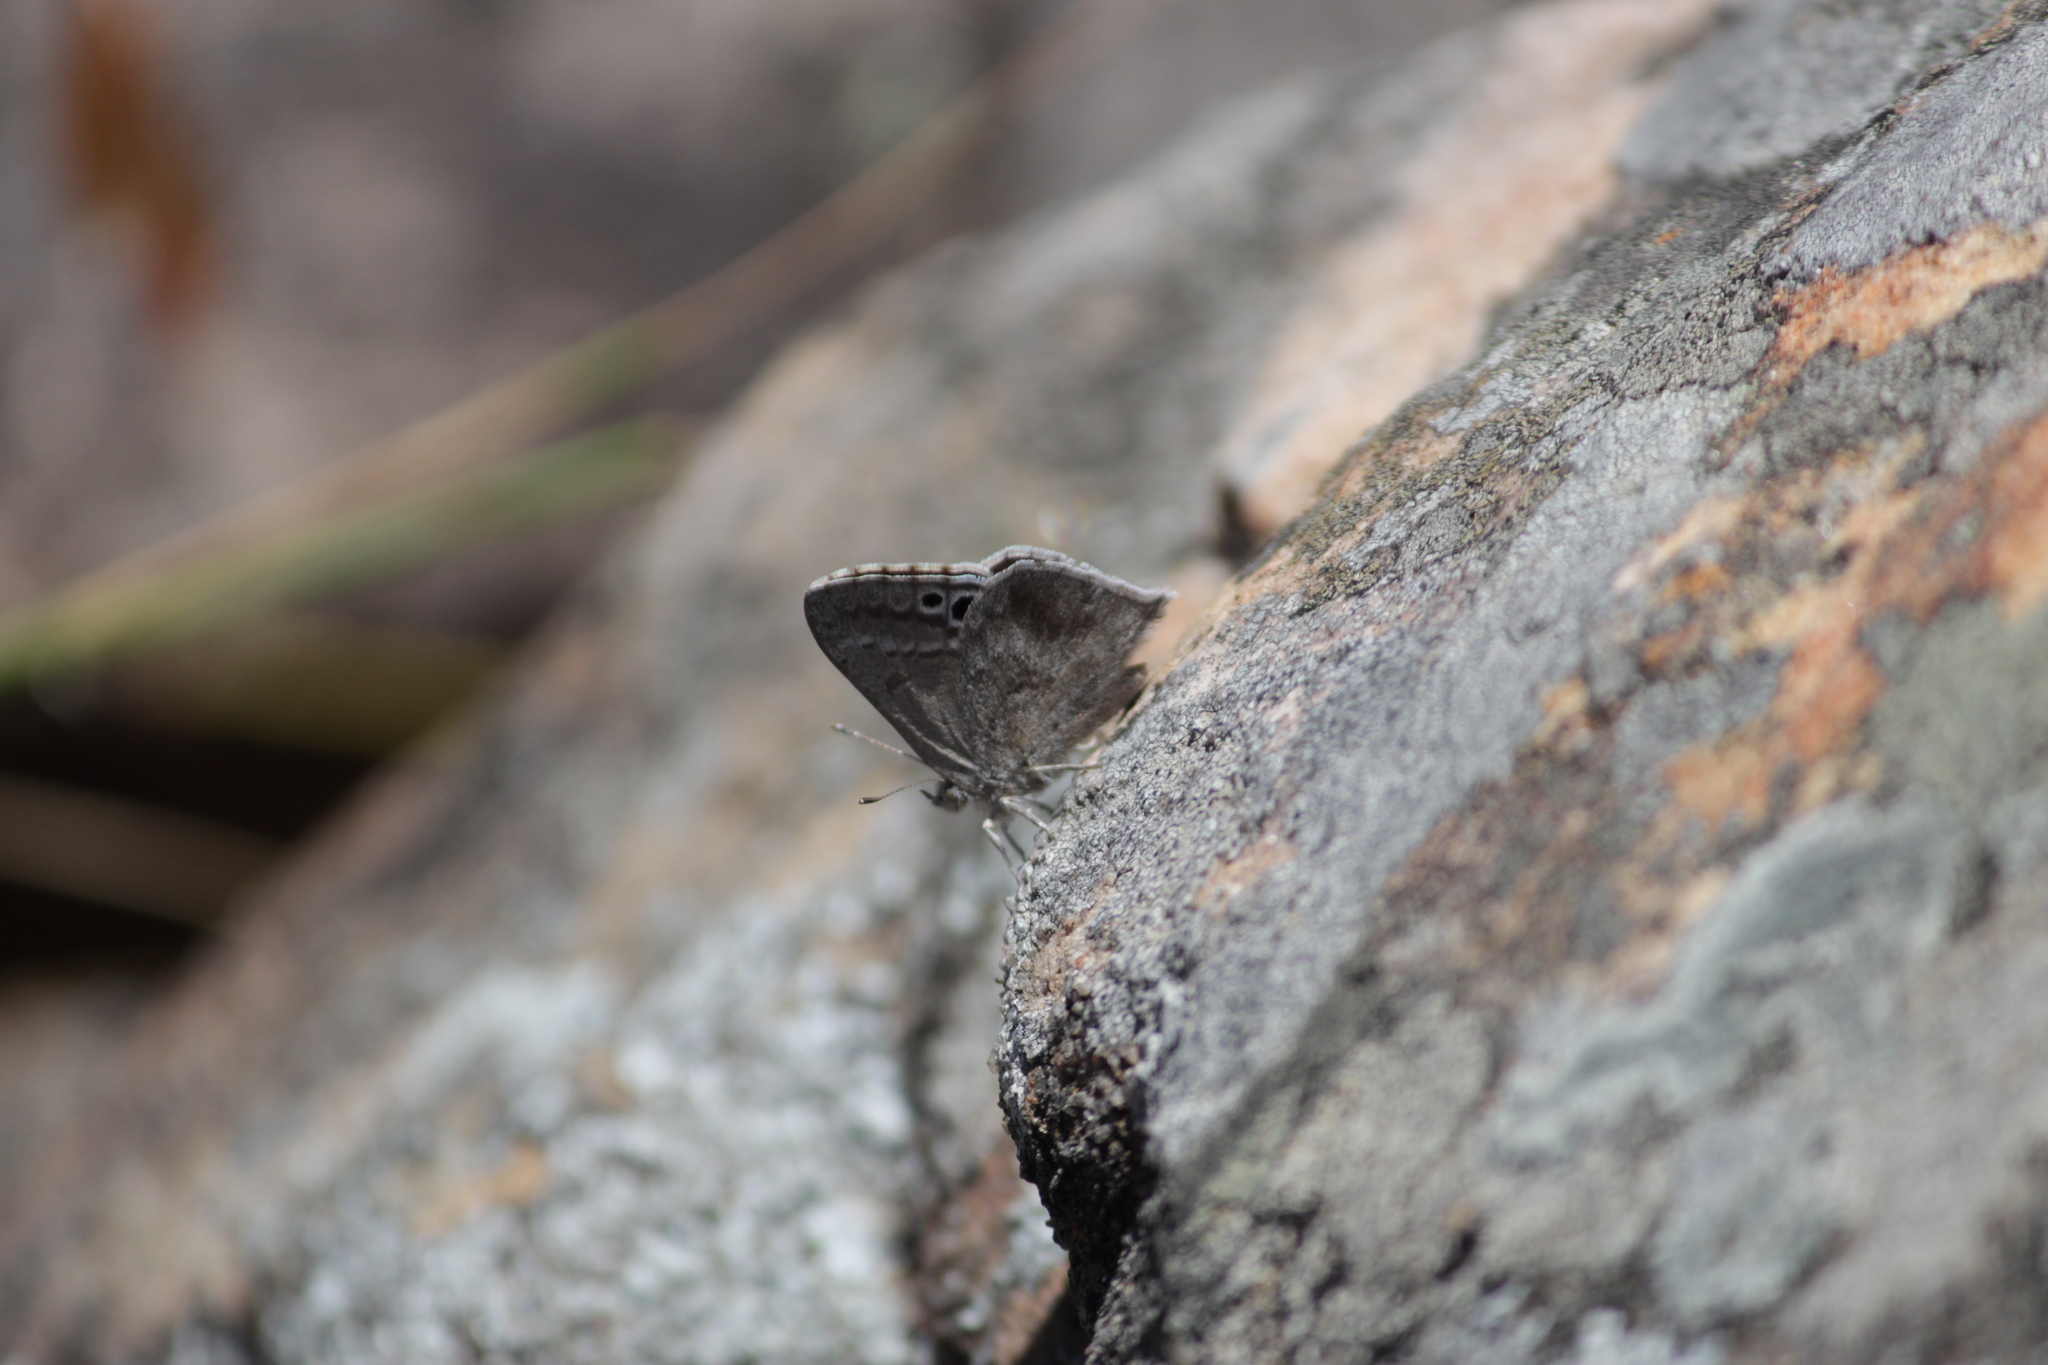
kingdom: Animalia
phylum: Arthropoda
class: Insecta
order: Lepidoptera
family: Lycaenidae
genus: Leptomyrina
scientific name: Leptomyrina gorgias
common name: Common black-eye
